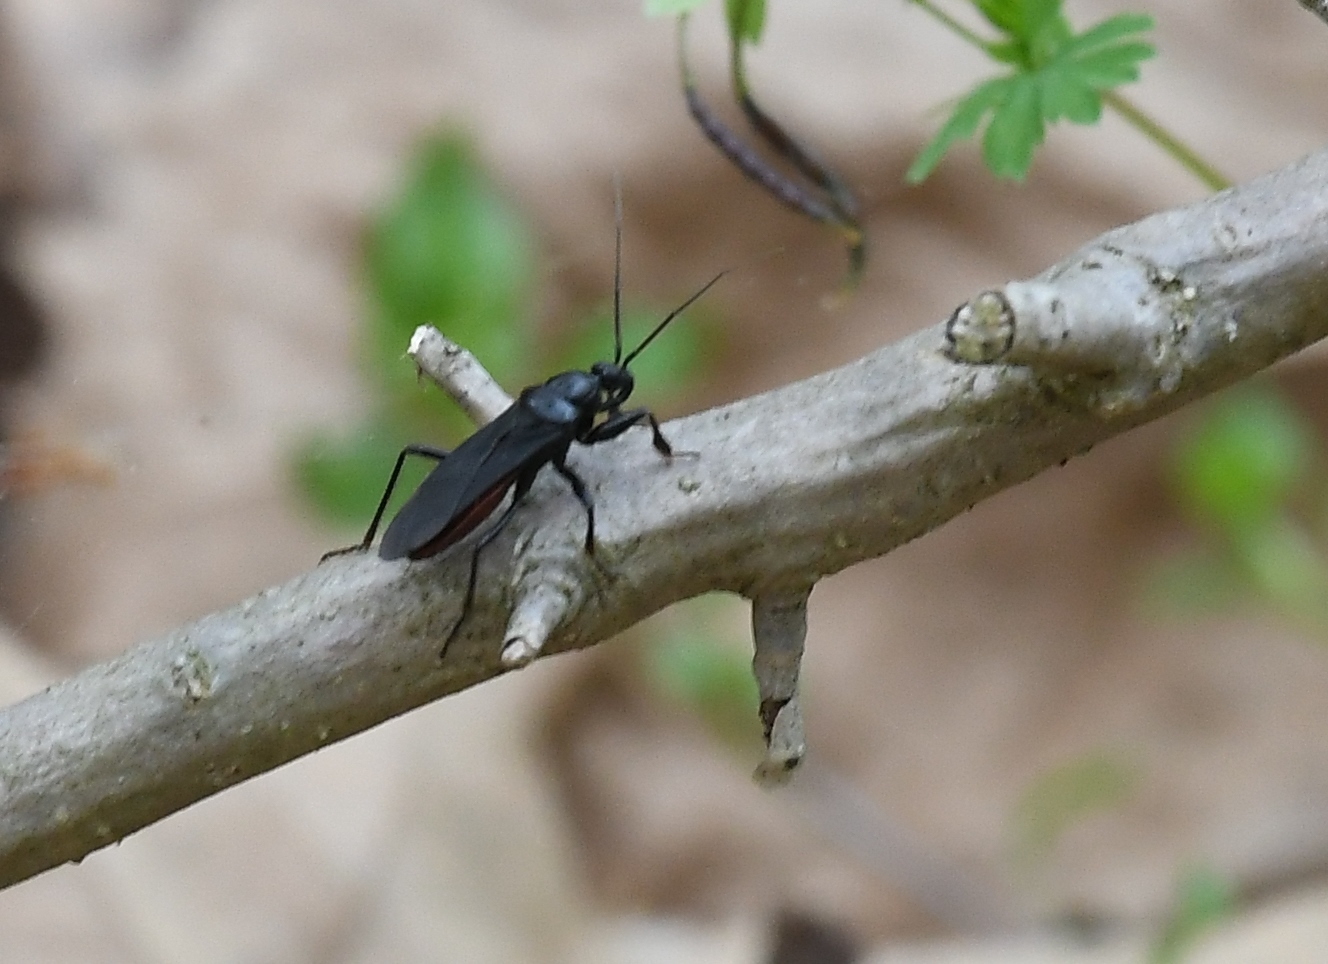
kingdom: Animalia
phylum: Arthropoda
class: Insecta
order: Hemiptera
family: Reduviidae
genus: Melanolestes
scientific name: Melanolestes picipes
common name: Assassin bug
